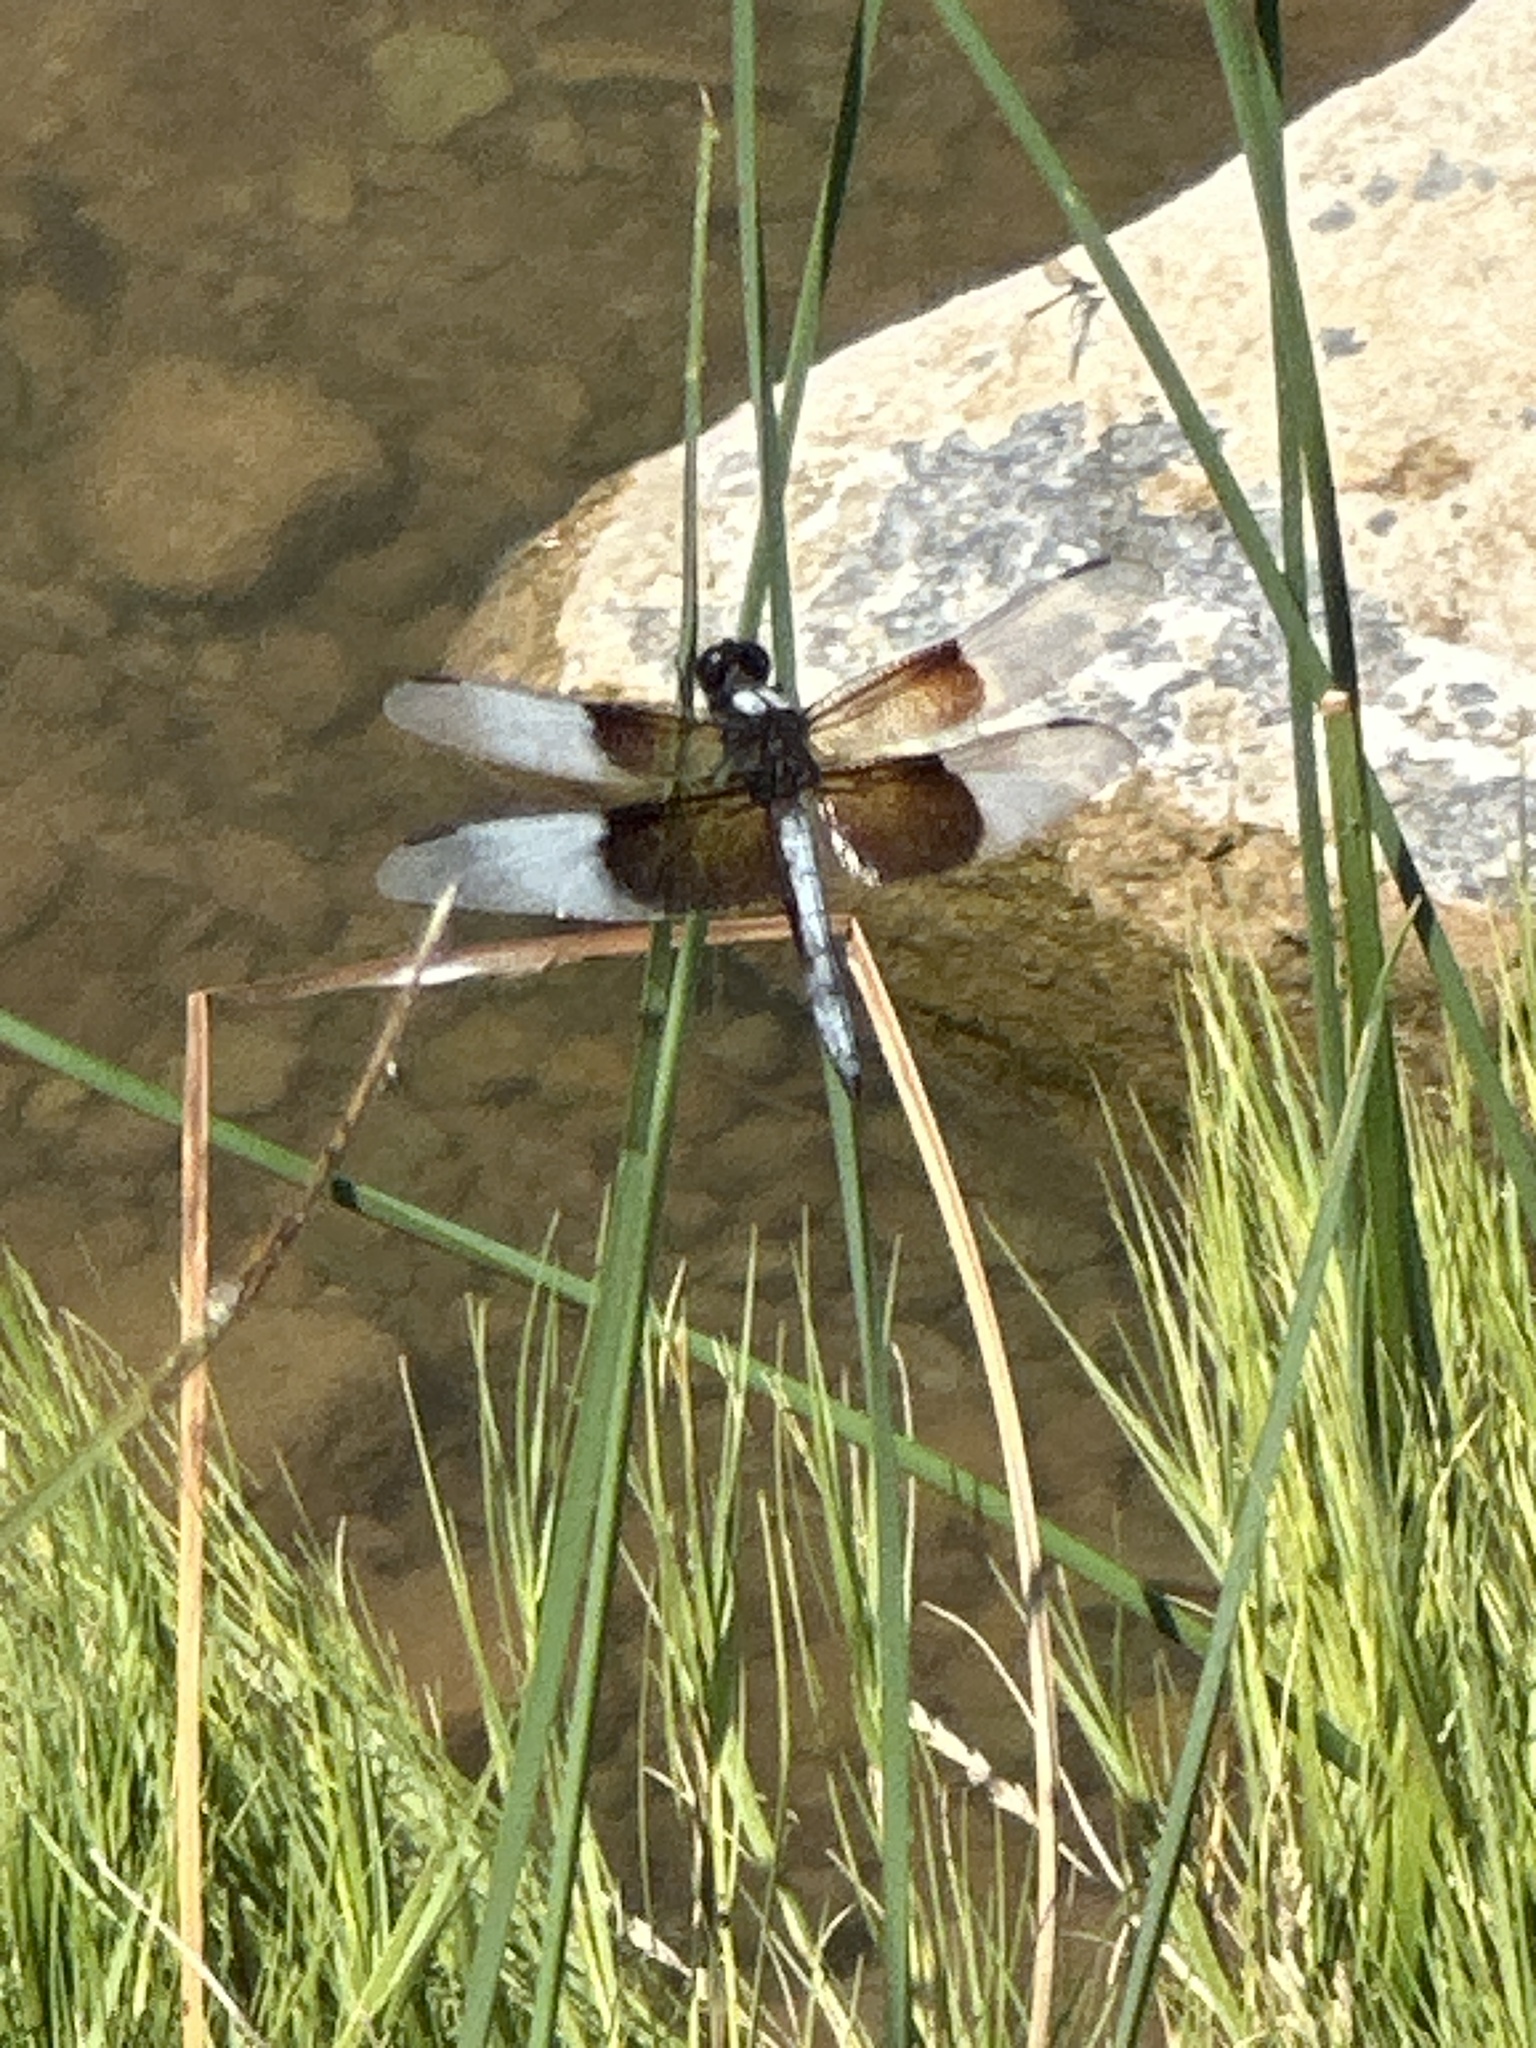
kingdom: Animalia
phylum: Arthropoda
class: Insecta
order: Odonata
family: Libellulidae
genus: Libellula
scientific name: Libellula luctuosa
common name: Widow skimmer
